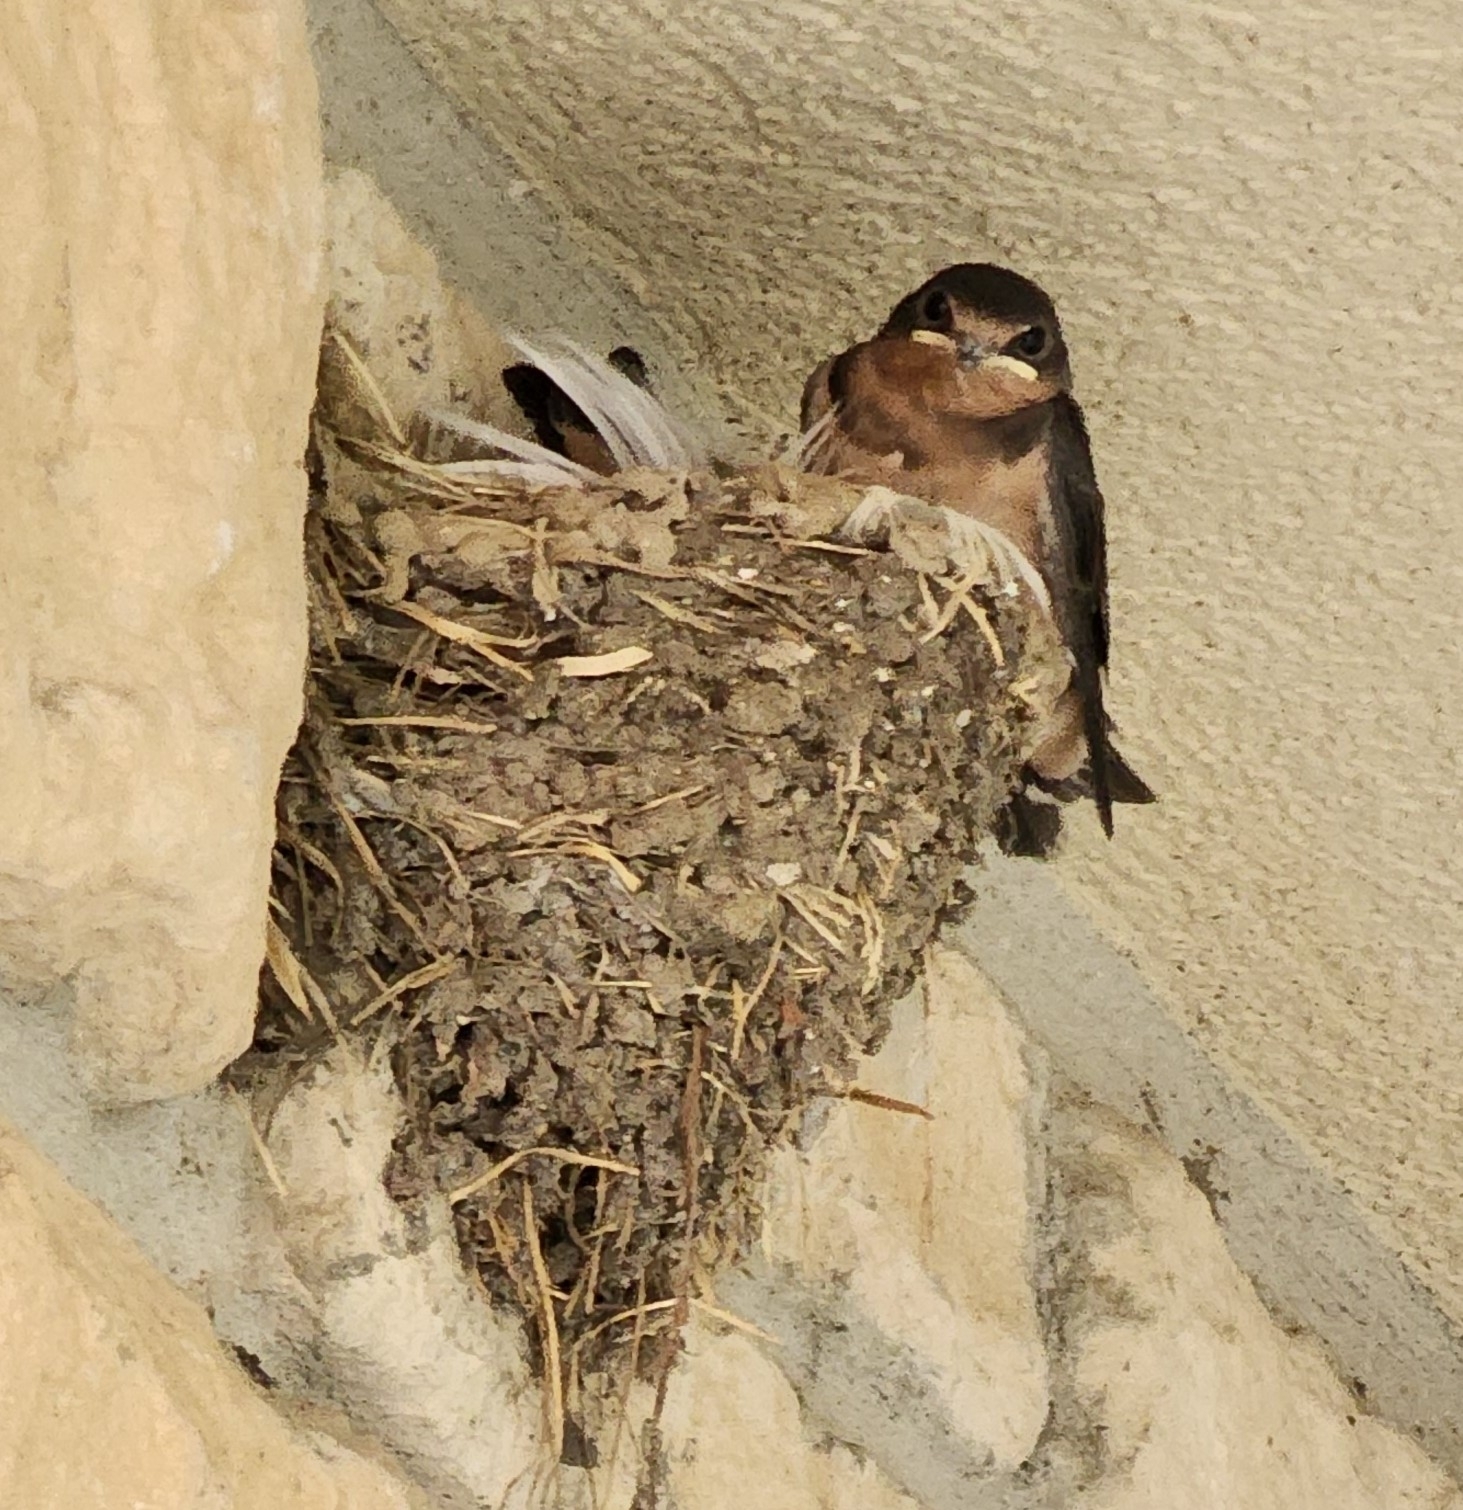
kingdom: Animalia
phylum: Chordata
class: Aves
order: Passeriformes
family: Hirundinidae
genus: Hirundo
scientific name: Hirundo rustica
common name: Barn swallow
